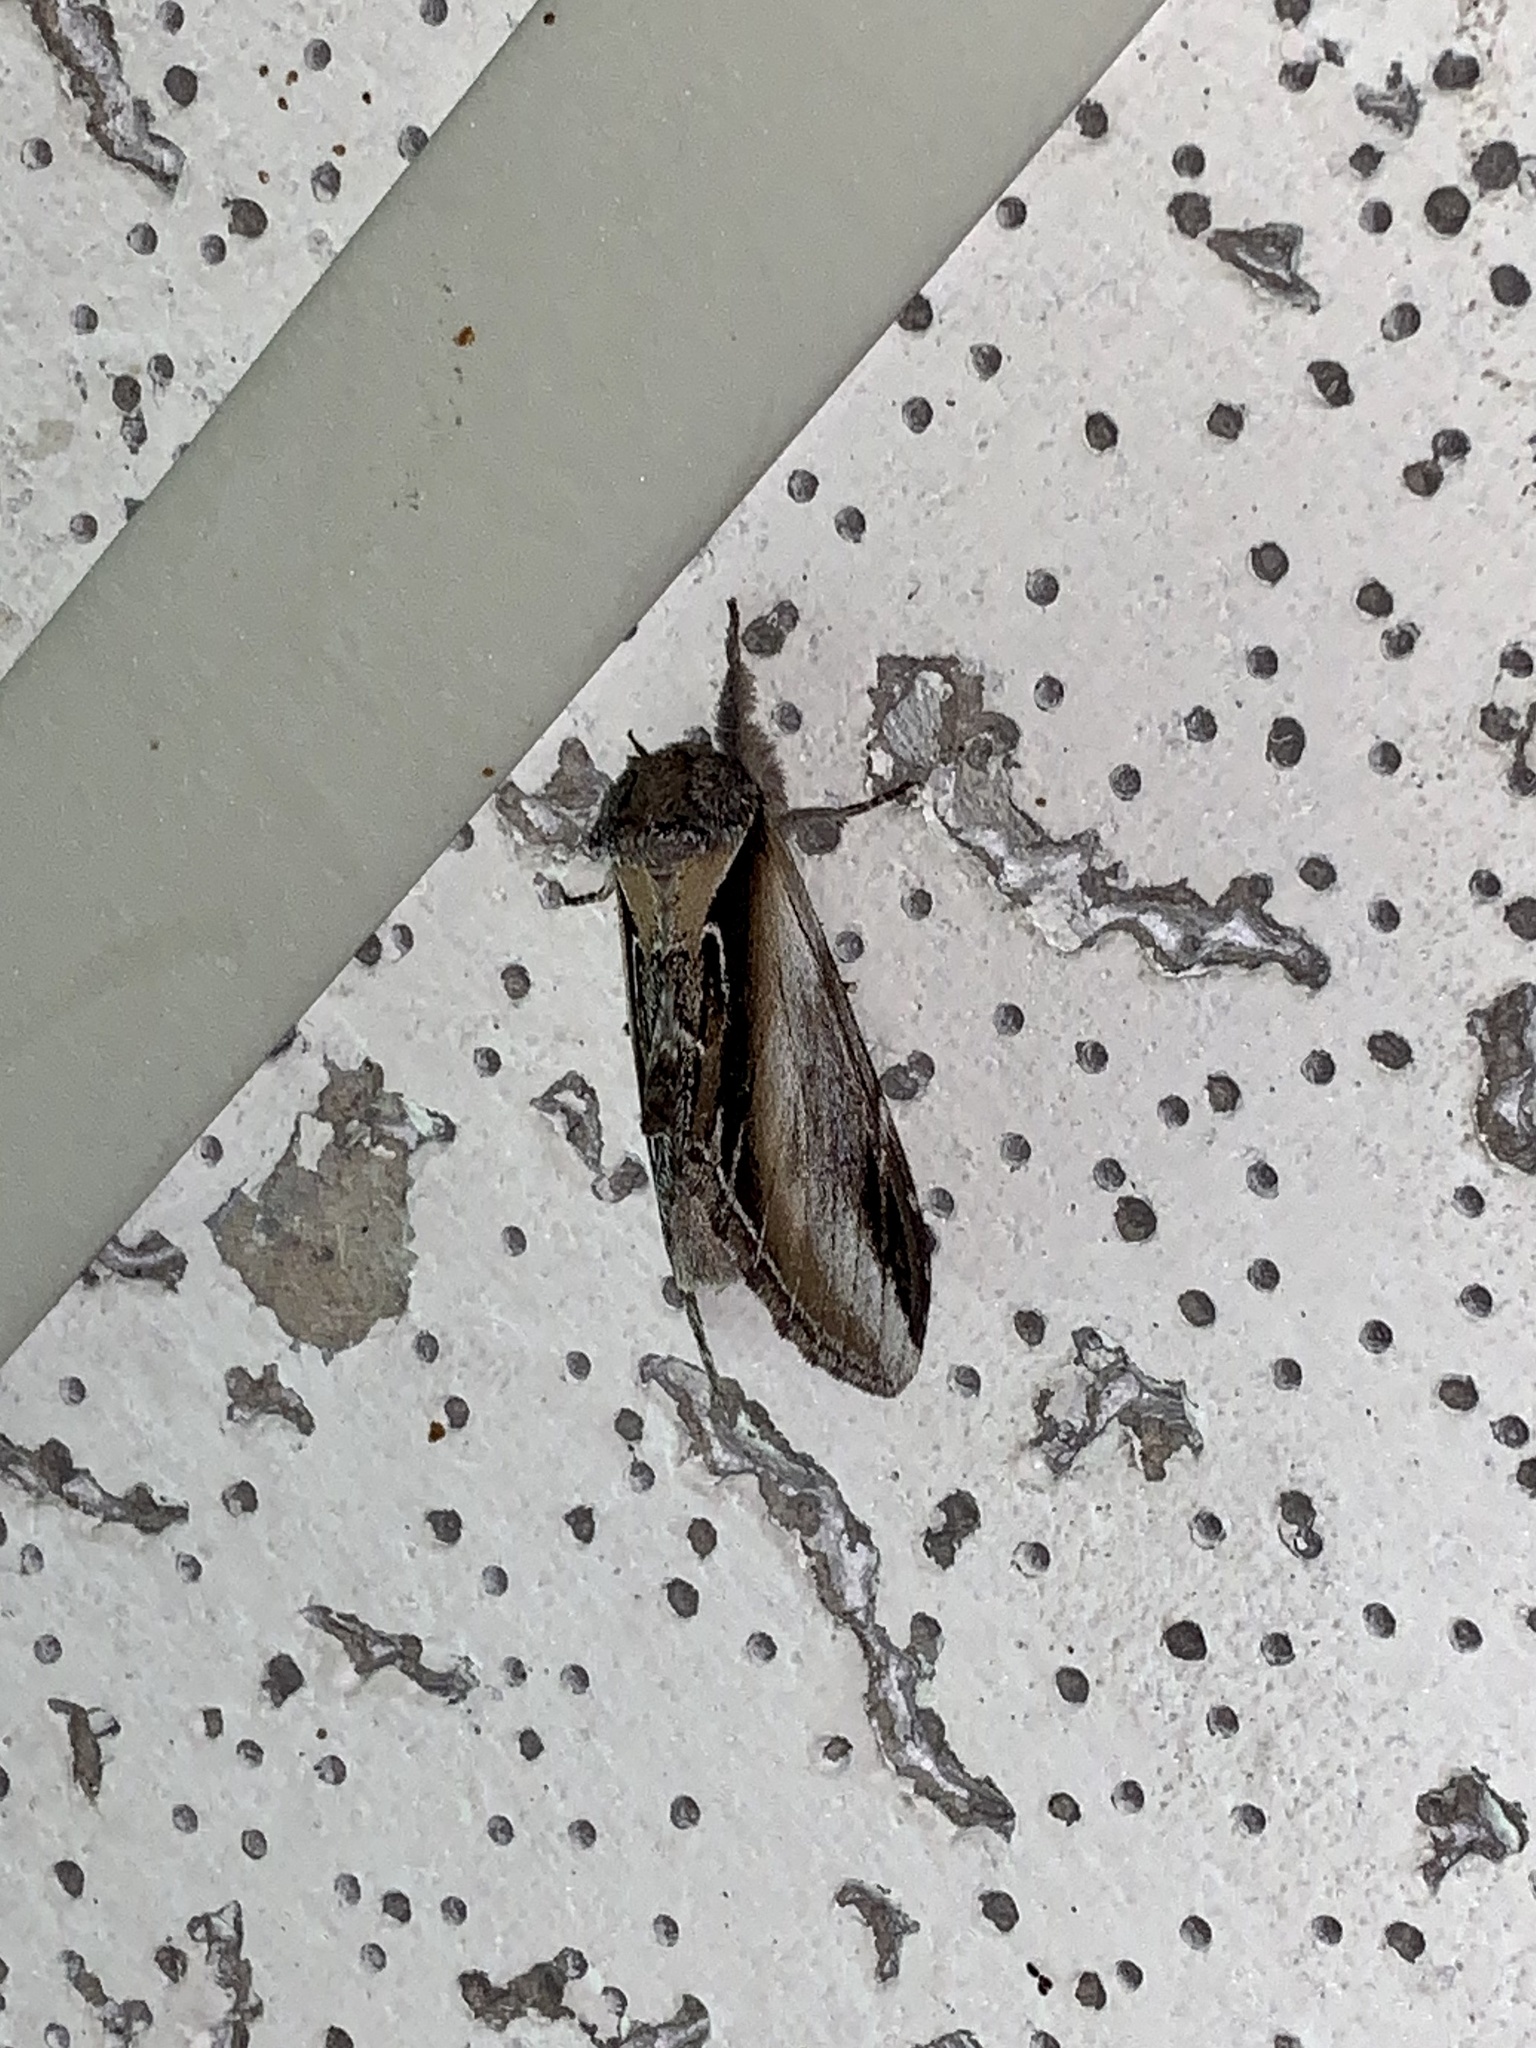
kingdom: Animalia
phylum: Arthropoda
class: Insecta
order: Lepidoptera
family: Notodontidae
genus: Pheosia
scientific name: Pheosia rimosa
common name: Black-rimmed prominent
